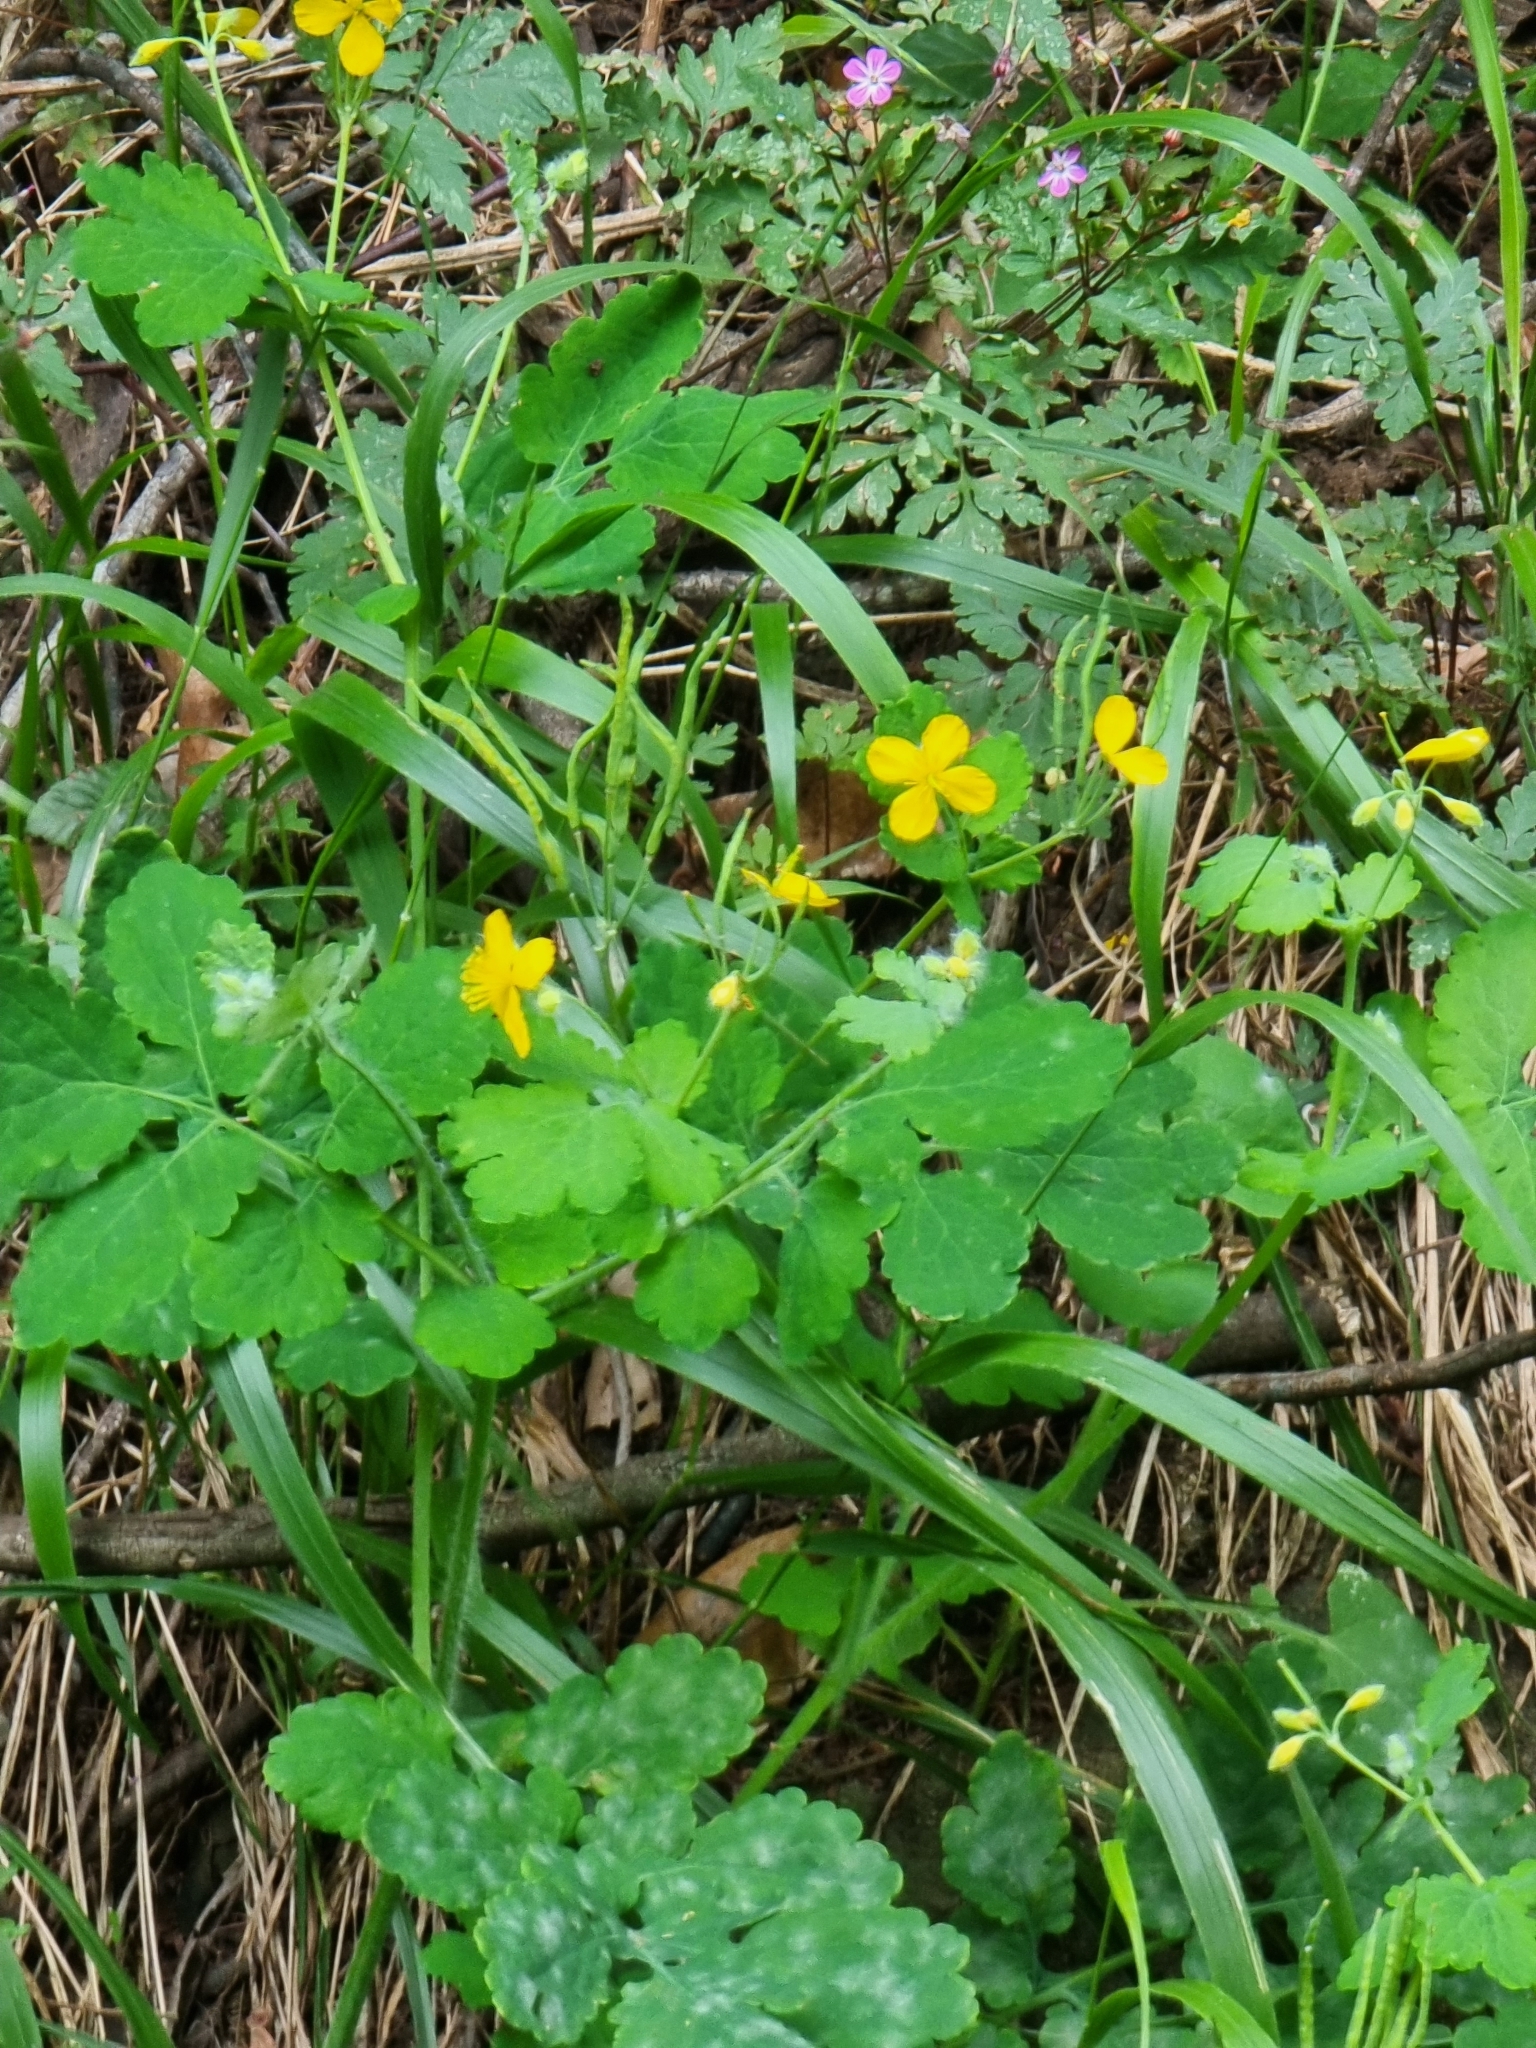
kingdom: Plantae
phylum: Tracheophyta
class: Magnoliopsida
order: Ranunculales
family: Papaveraceae
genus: Chelidonium
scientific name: Chelidonium majus
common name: Greater celandine
